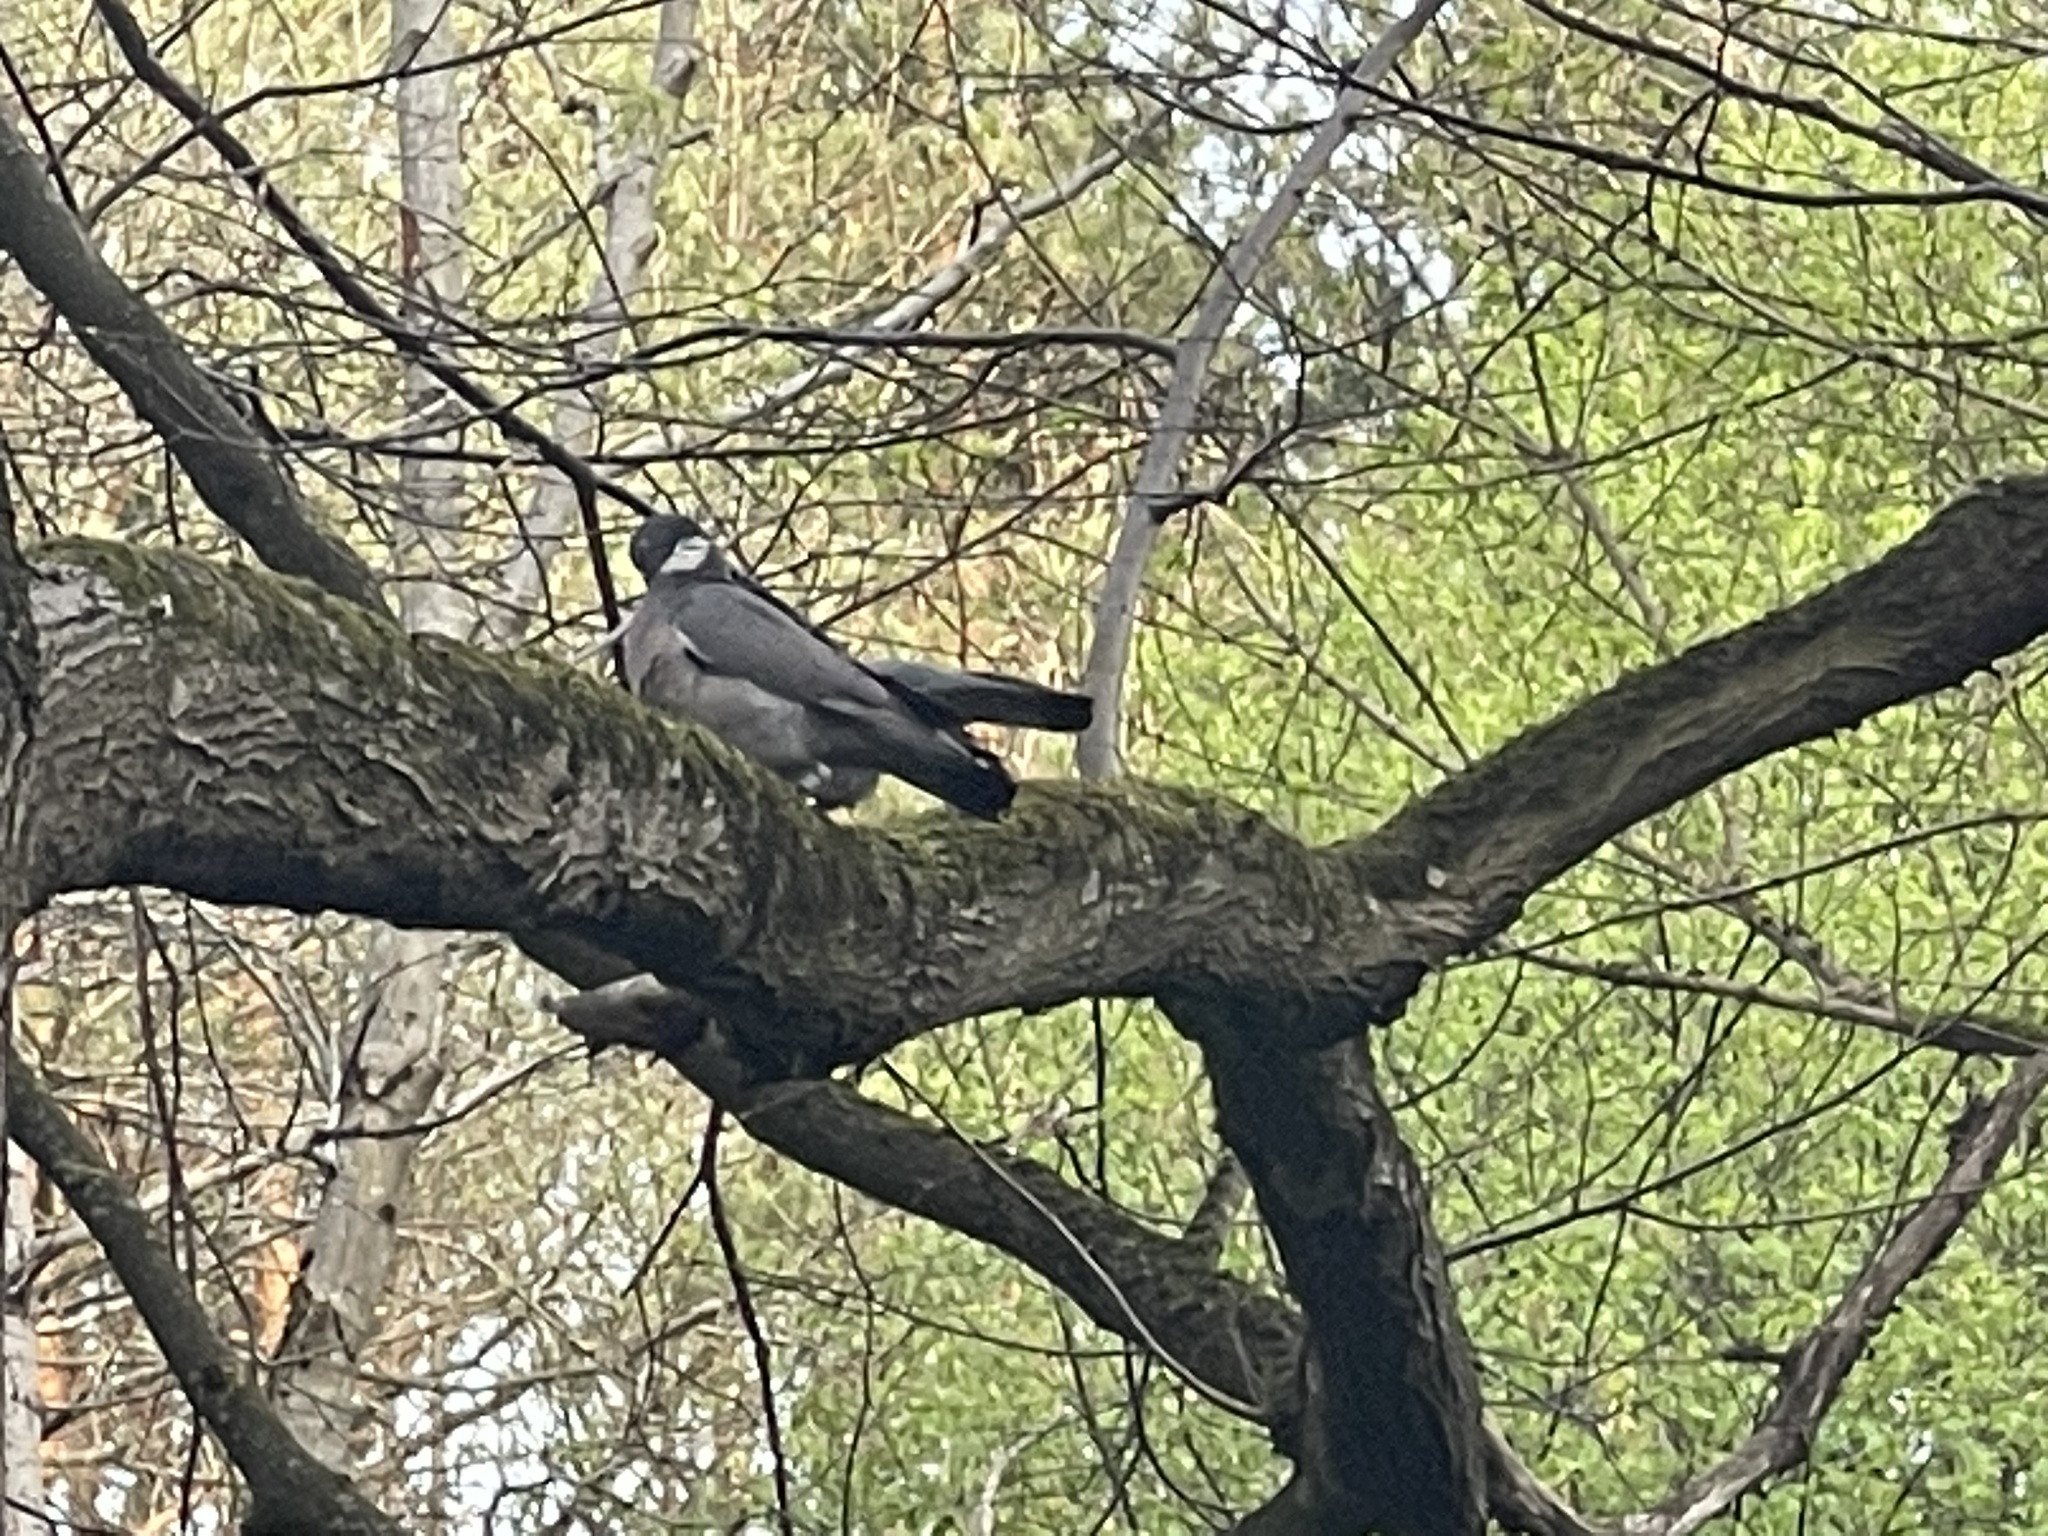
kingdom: Animalia
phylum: Chordata
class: Aves
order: Columbiformes
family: Columbidae
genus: Columba
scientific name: Columba palumbus
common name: Common wood pigeon
